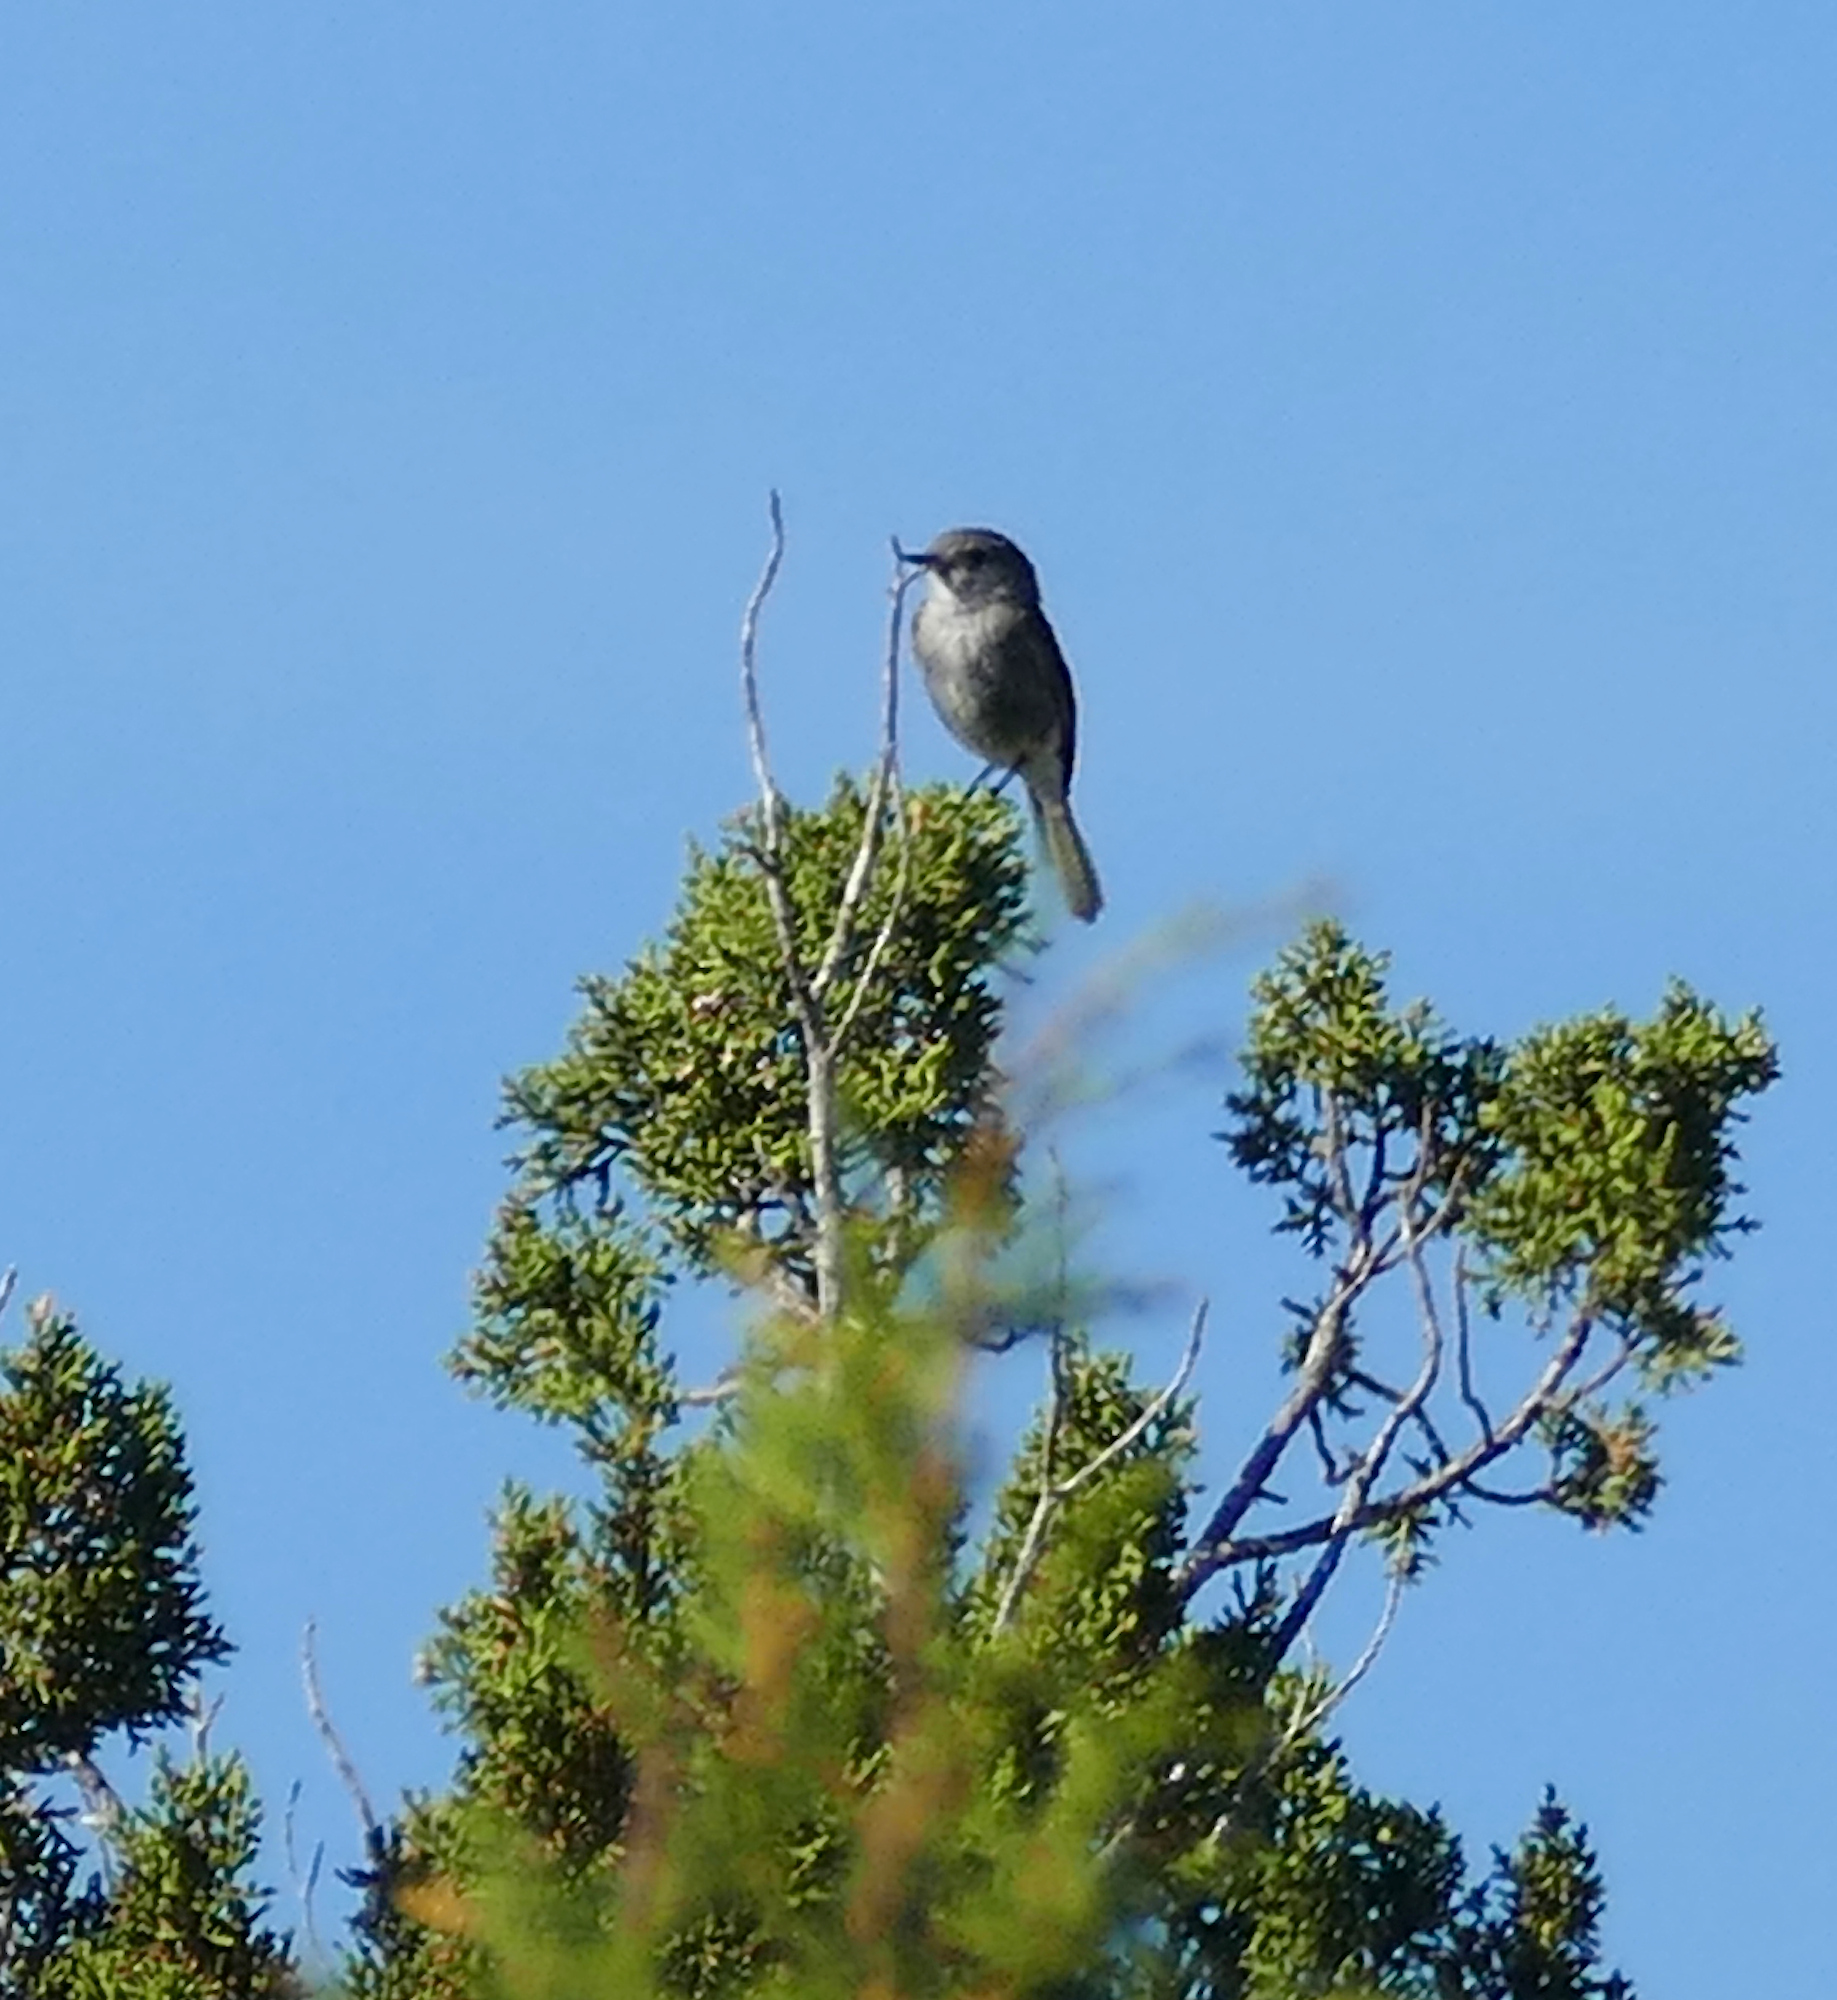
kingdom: Animalia
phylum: Chordata
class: Aves
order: Passeriformes
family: Tyrannidae
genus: Empidonax
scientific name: Empidonax wrightii
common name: Gray flycatcher
